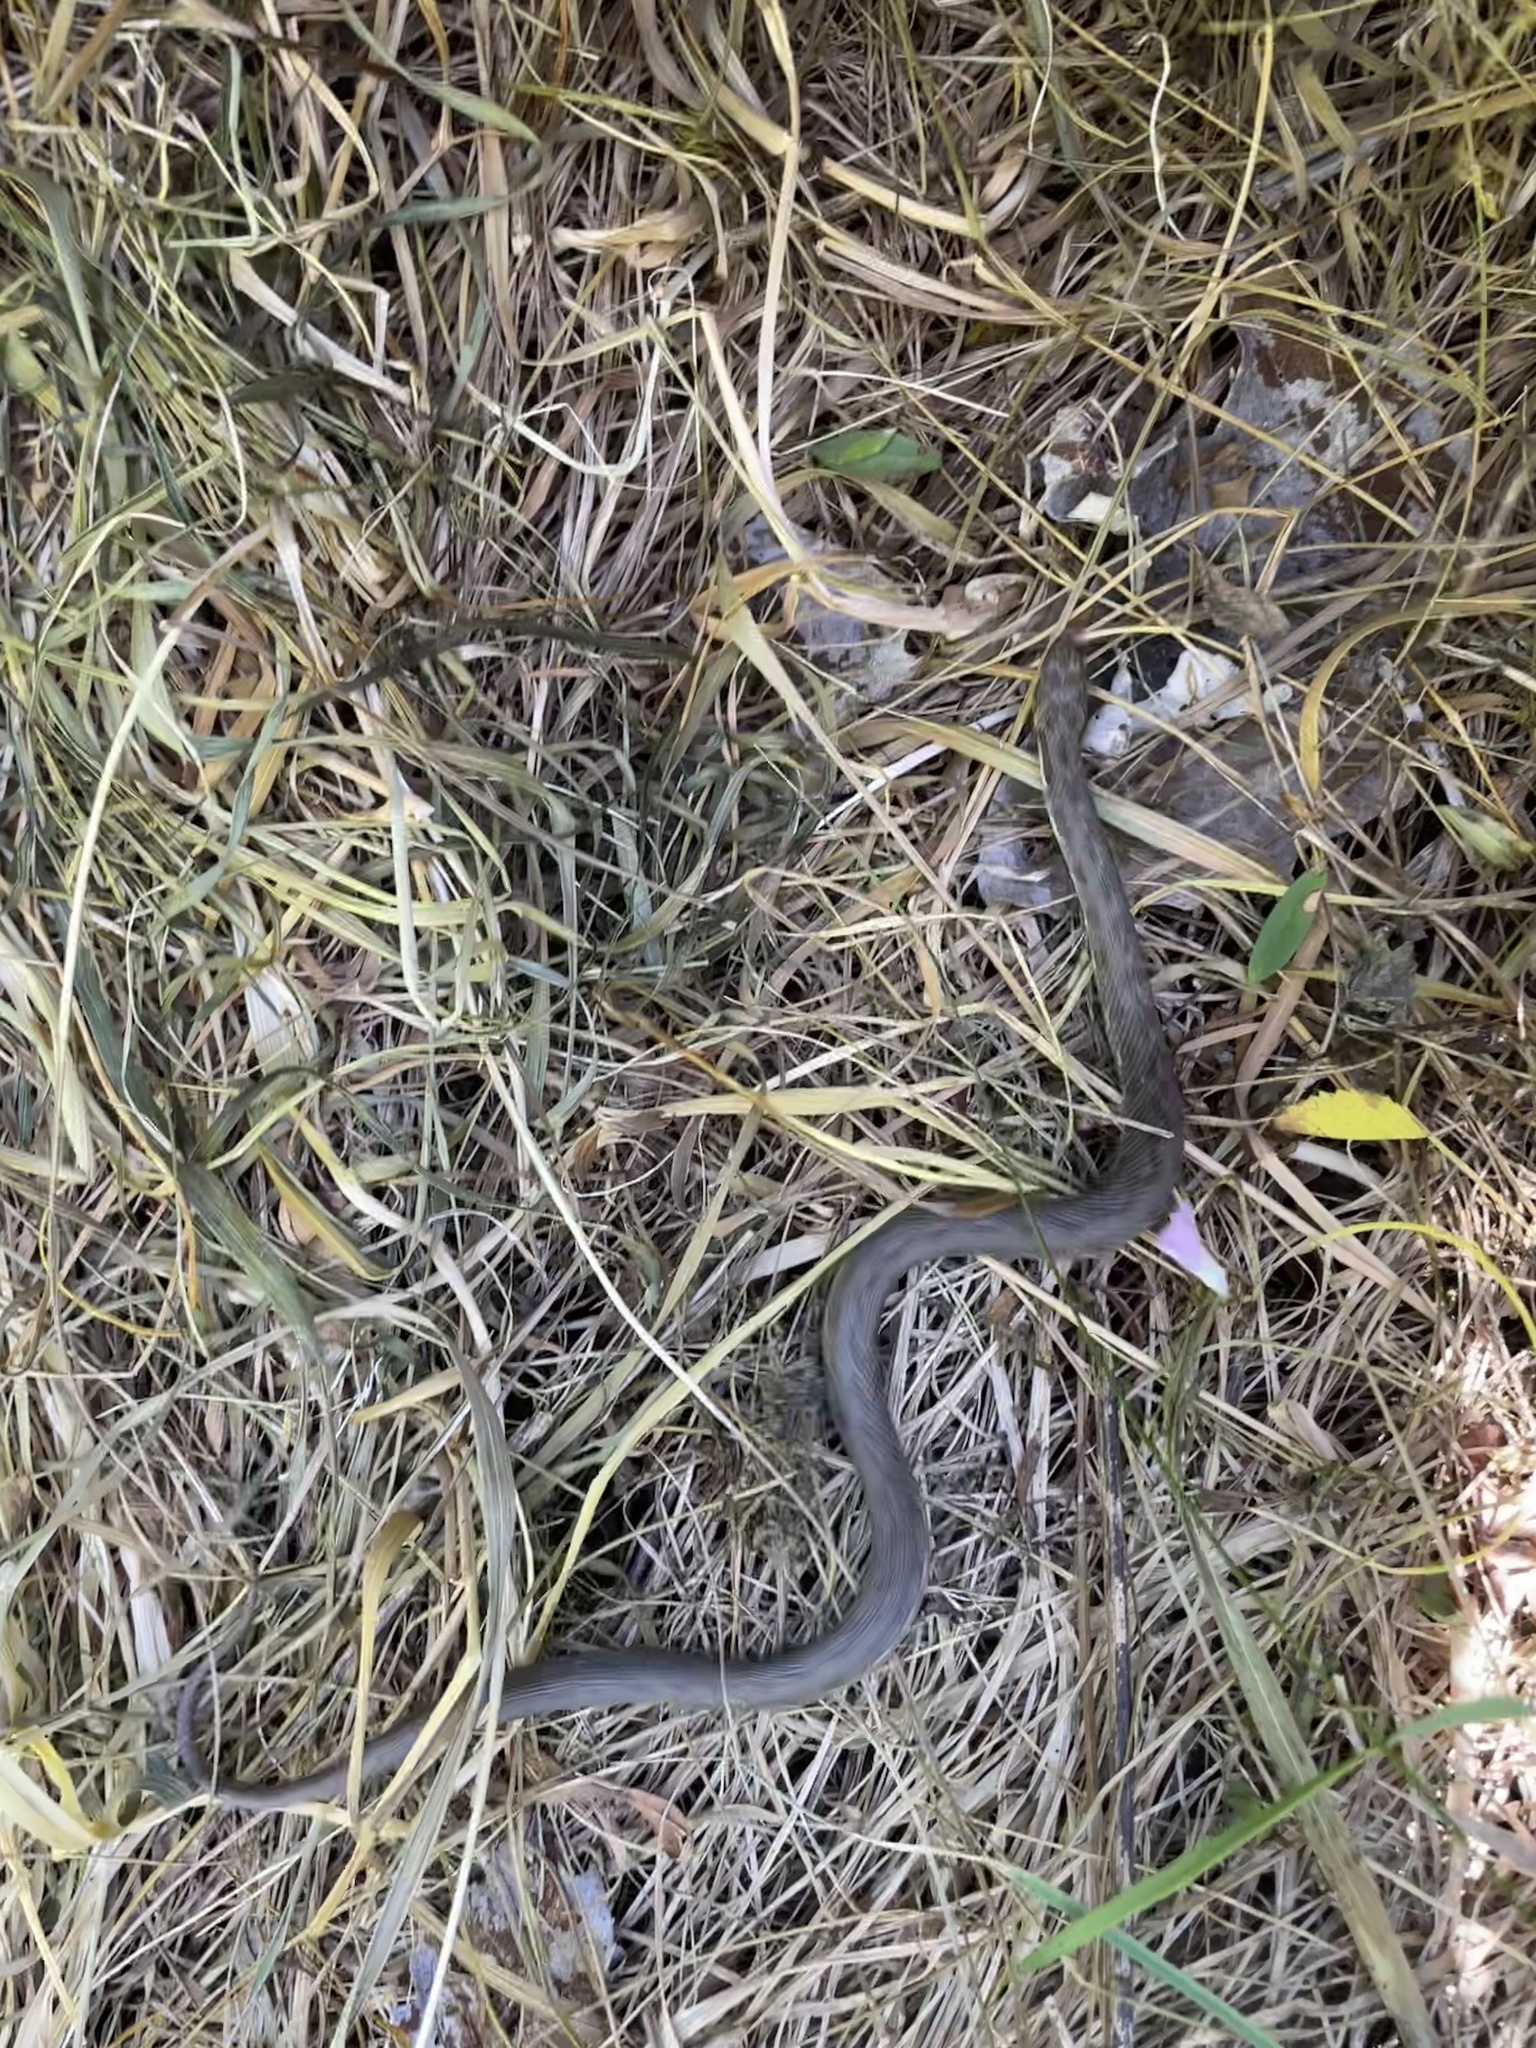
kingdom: Animalia
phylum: Chordata
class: Squamata
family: Colubridae
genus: Natrix
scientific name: Natrix maura
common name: Viperine water snake
